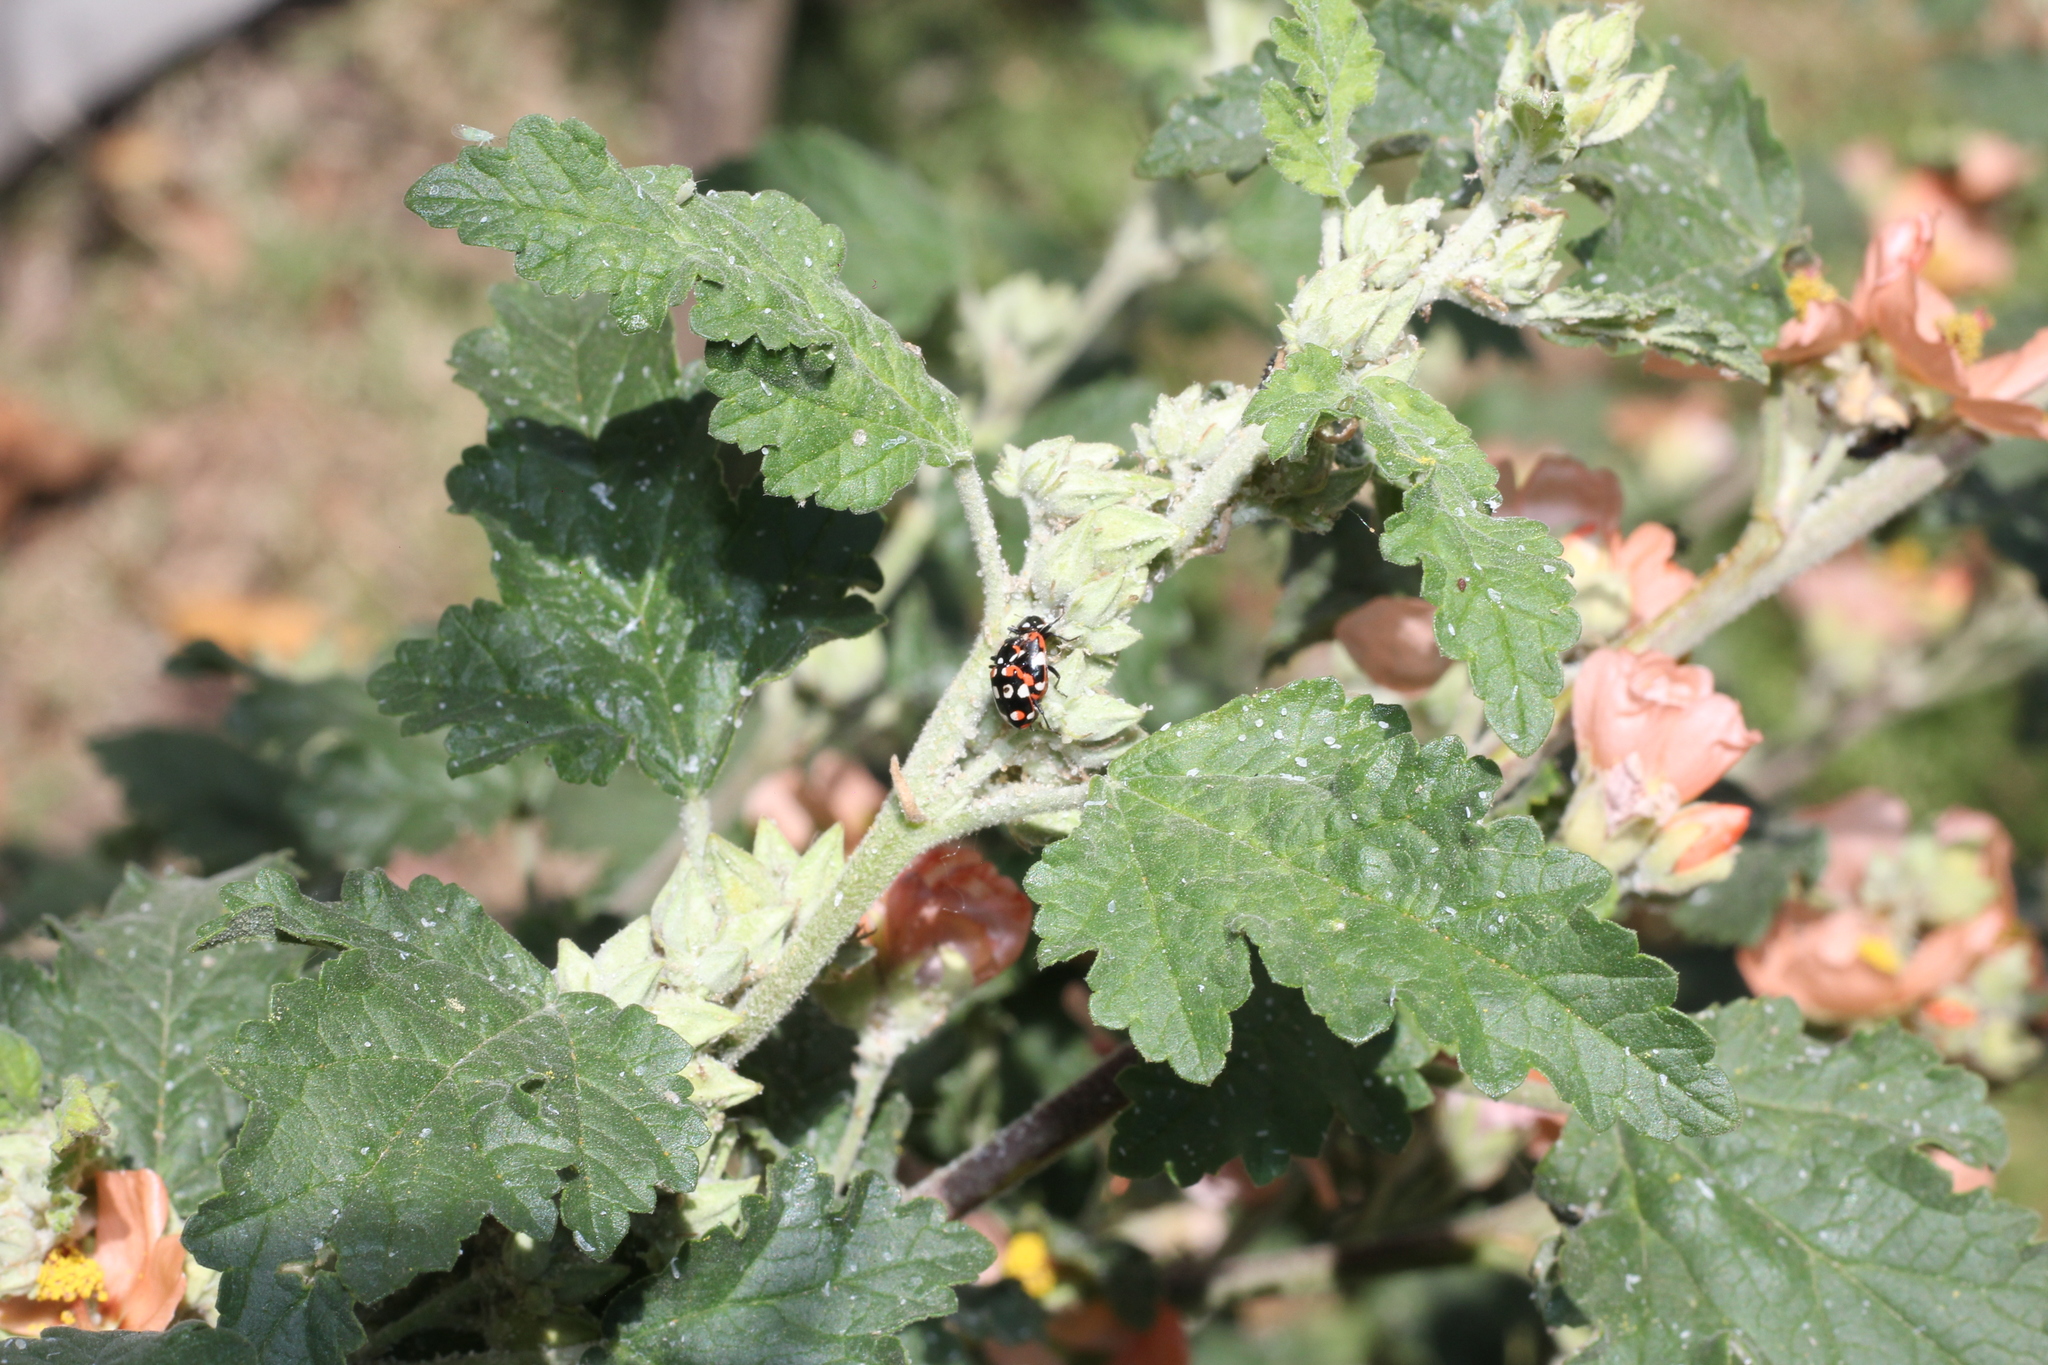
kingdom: Animalia
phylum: Arthropoda
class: Insecta
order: Coleoptera
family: Coccinellidae
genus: Eriopis
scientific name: Eriopis connexa
